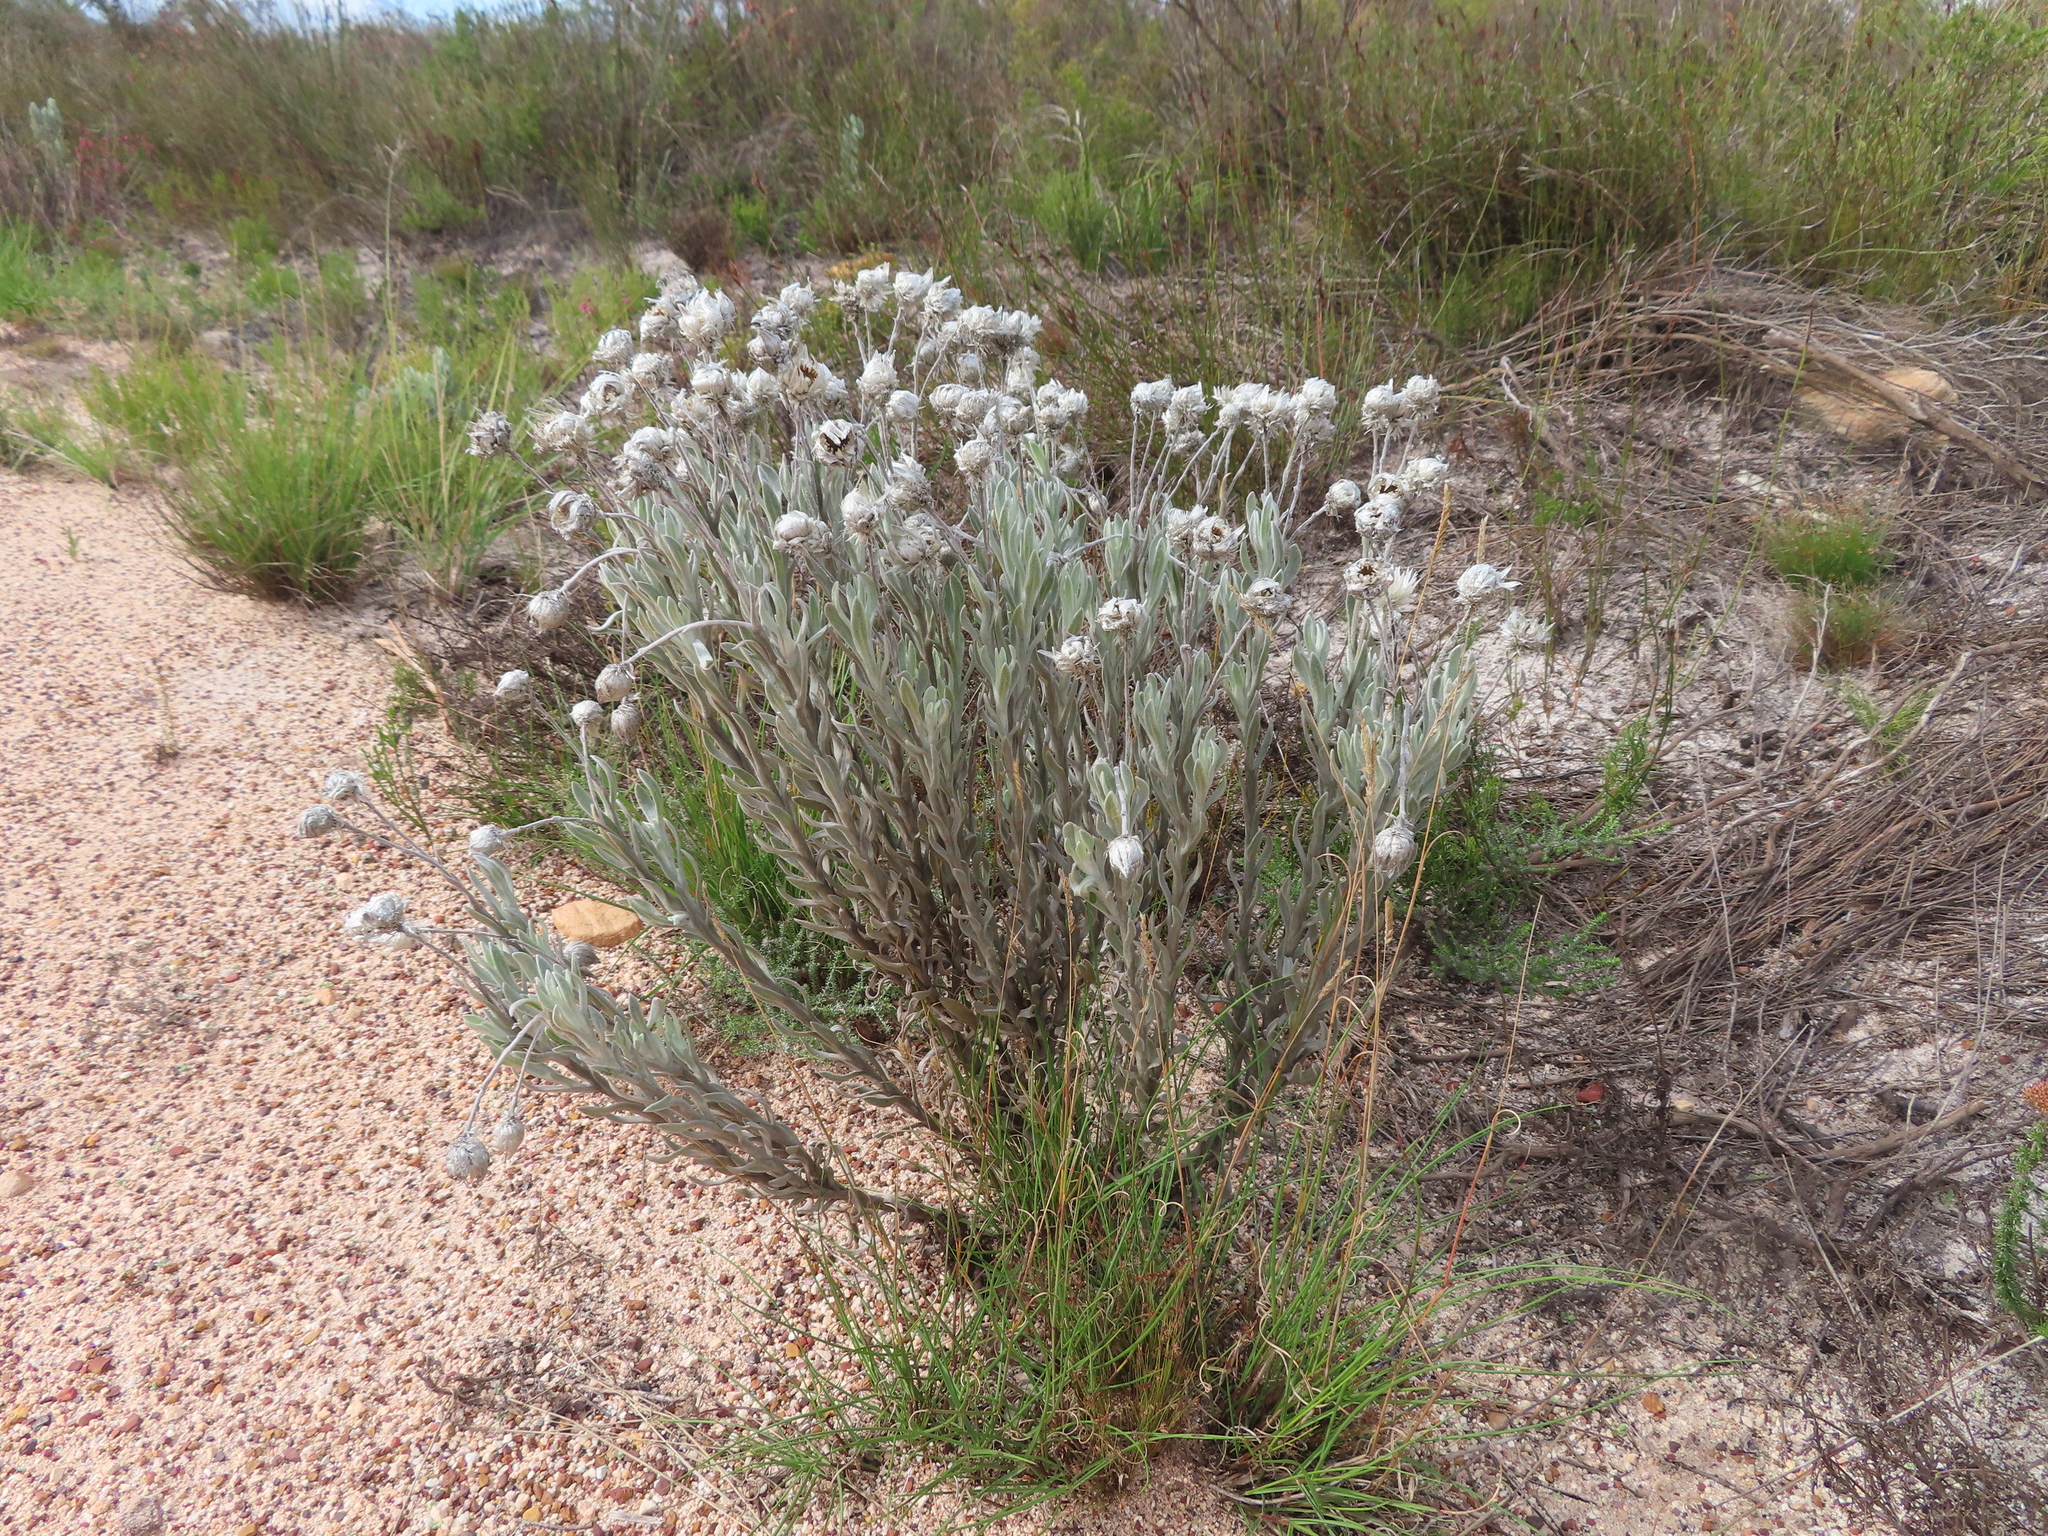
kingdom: Plantae
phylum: Tracheophyta
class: Magnoliopsida
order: Asterales
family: Asteraceae
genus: Syncarpha
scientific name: Syncarpha vestita
